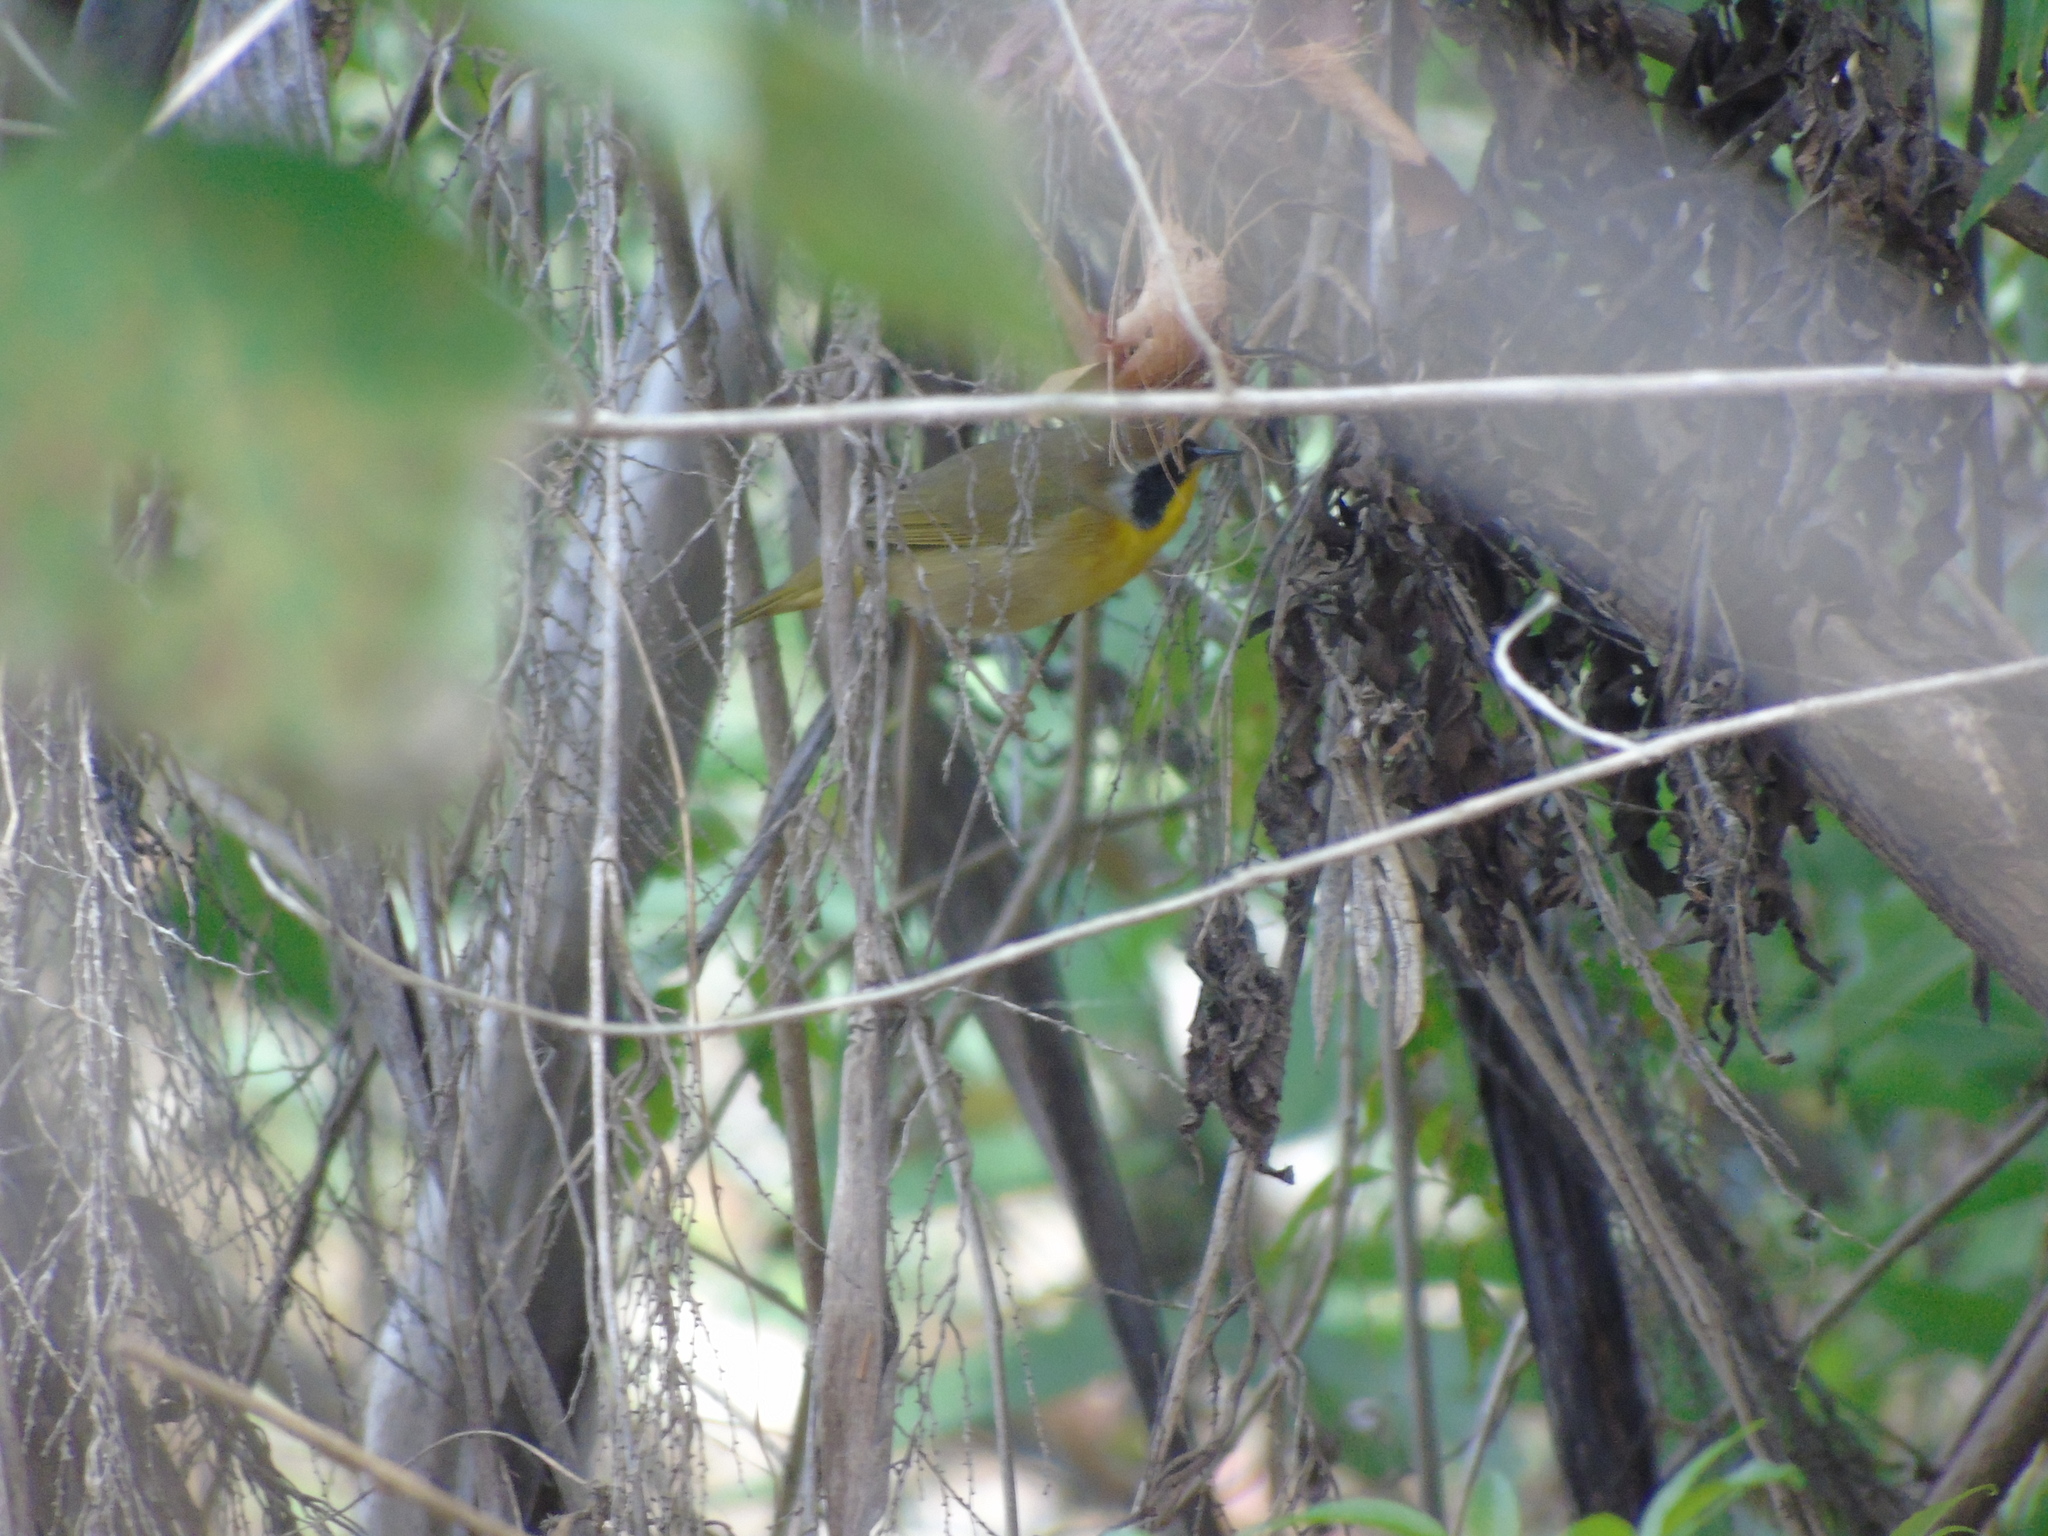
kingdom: Animalia
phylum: Chordata
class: Aves
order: Passeriformes
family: Parulidae
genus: Geothlypis
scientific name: Geothlypis trichas
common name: Common yellowthroat
